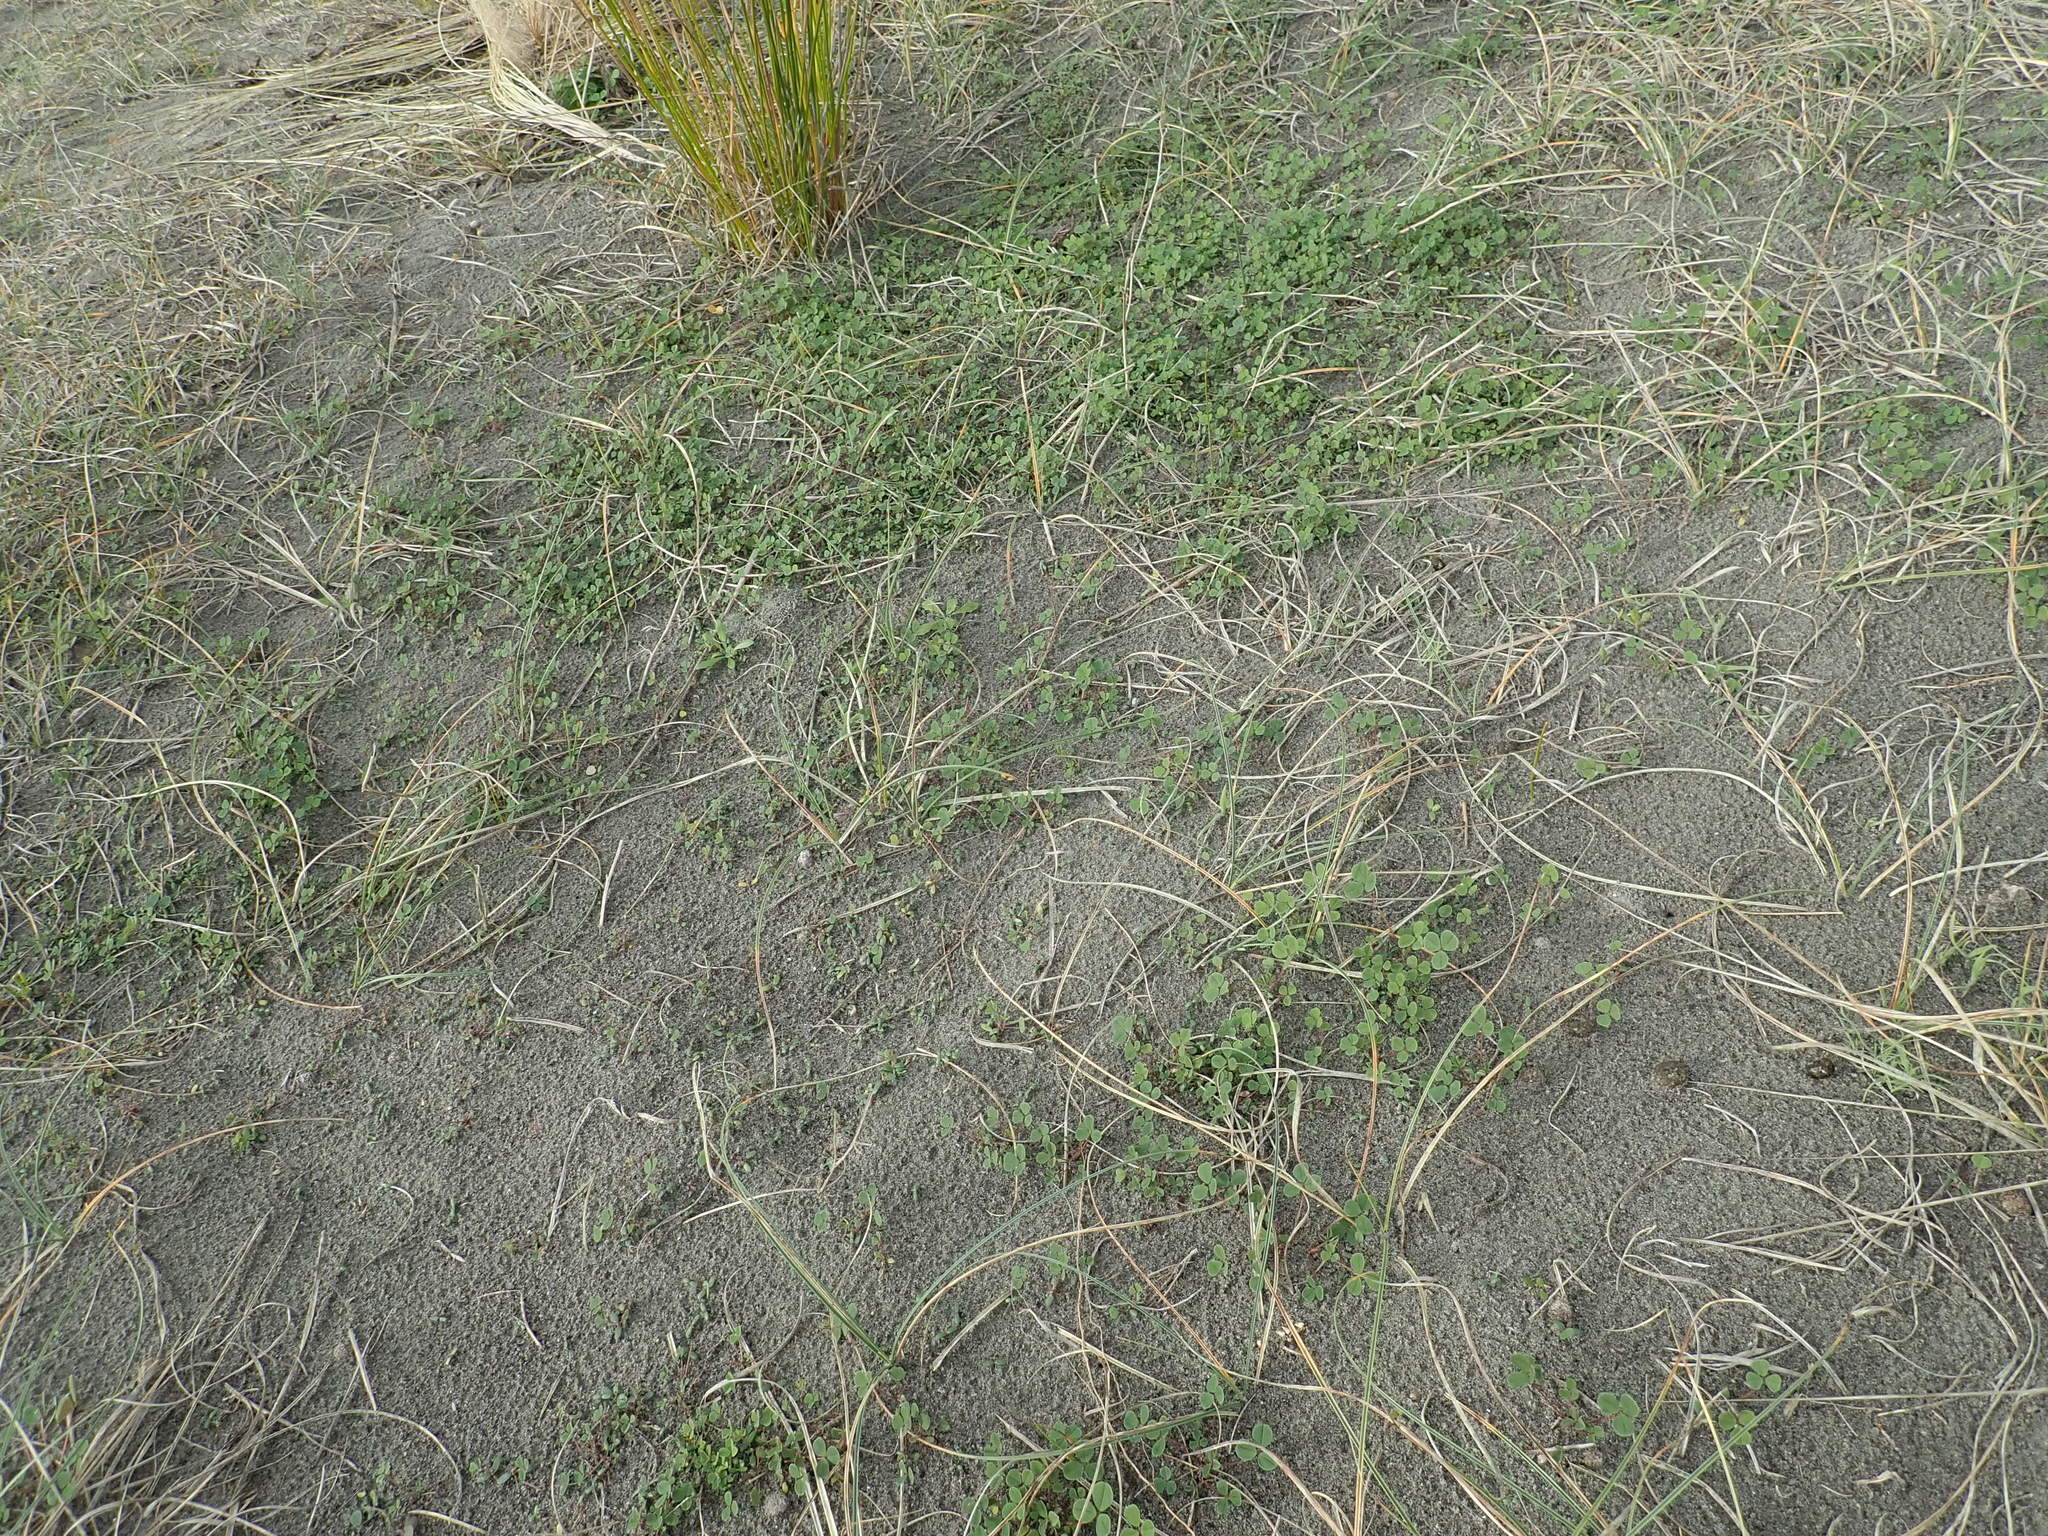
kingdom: Plantae
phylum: Tracheophyta
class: Magnoliopsida
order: Fabales
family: Fabaceae
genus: Melilotus
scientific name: Melilotus indicus
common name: Small melilot
